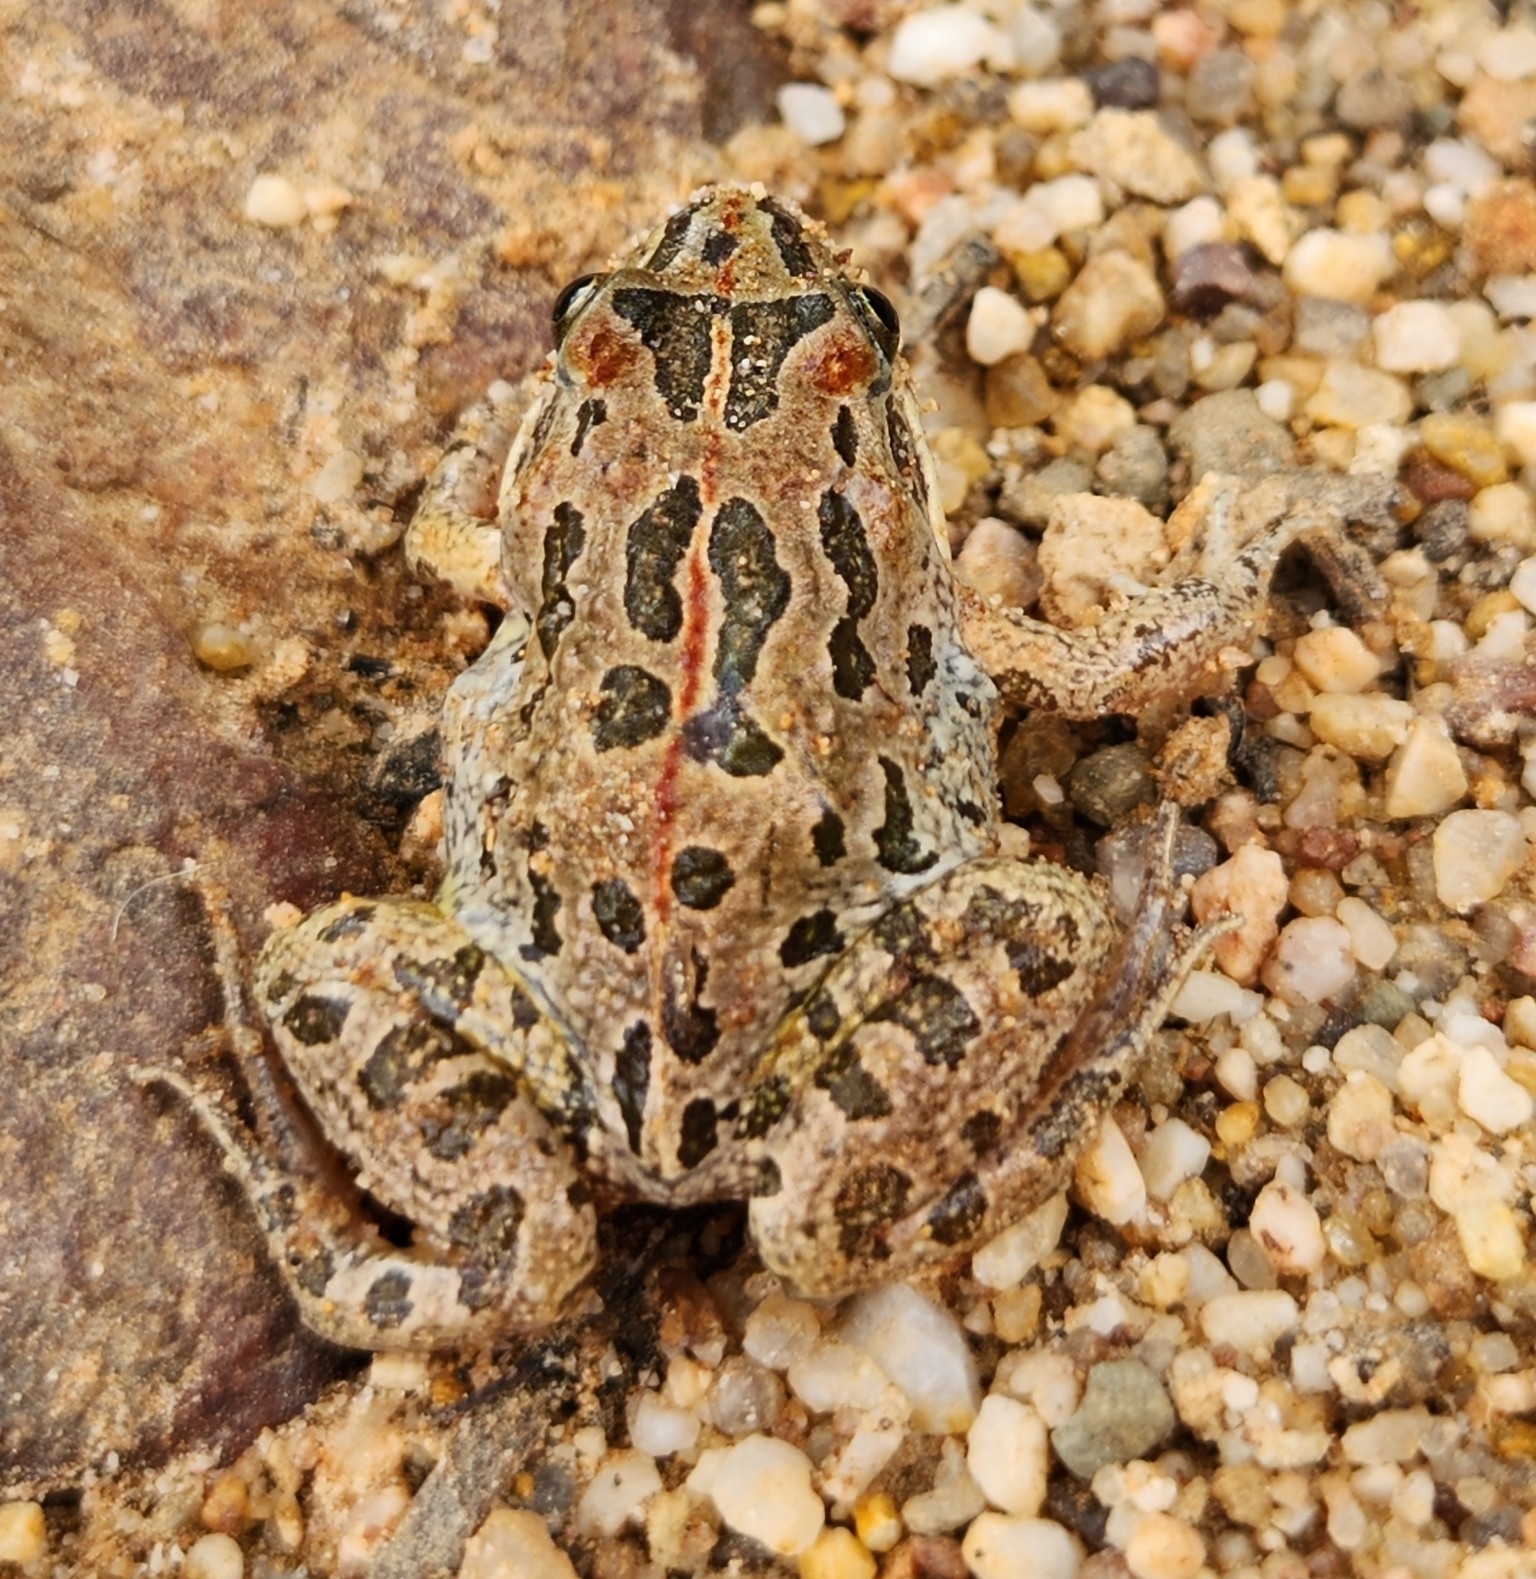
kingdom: Animalia
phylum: Chordata
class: Amphibia
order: Anura
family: Limnodynastidae
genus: Limnodynastes
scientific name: Limnodynastes tasmaniensis
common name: Spotted marsh frog
